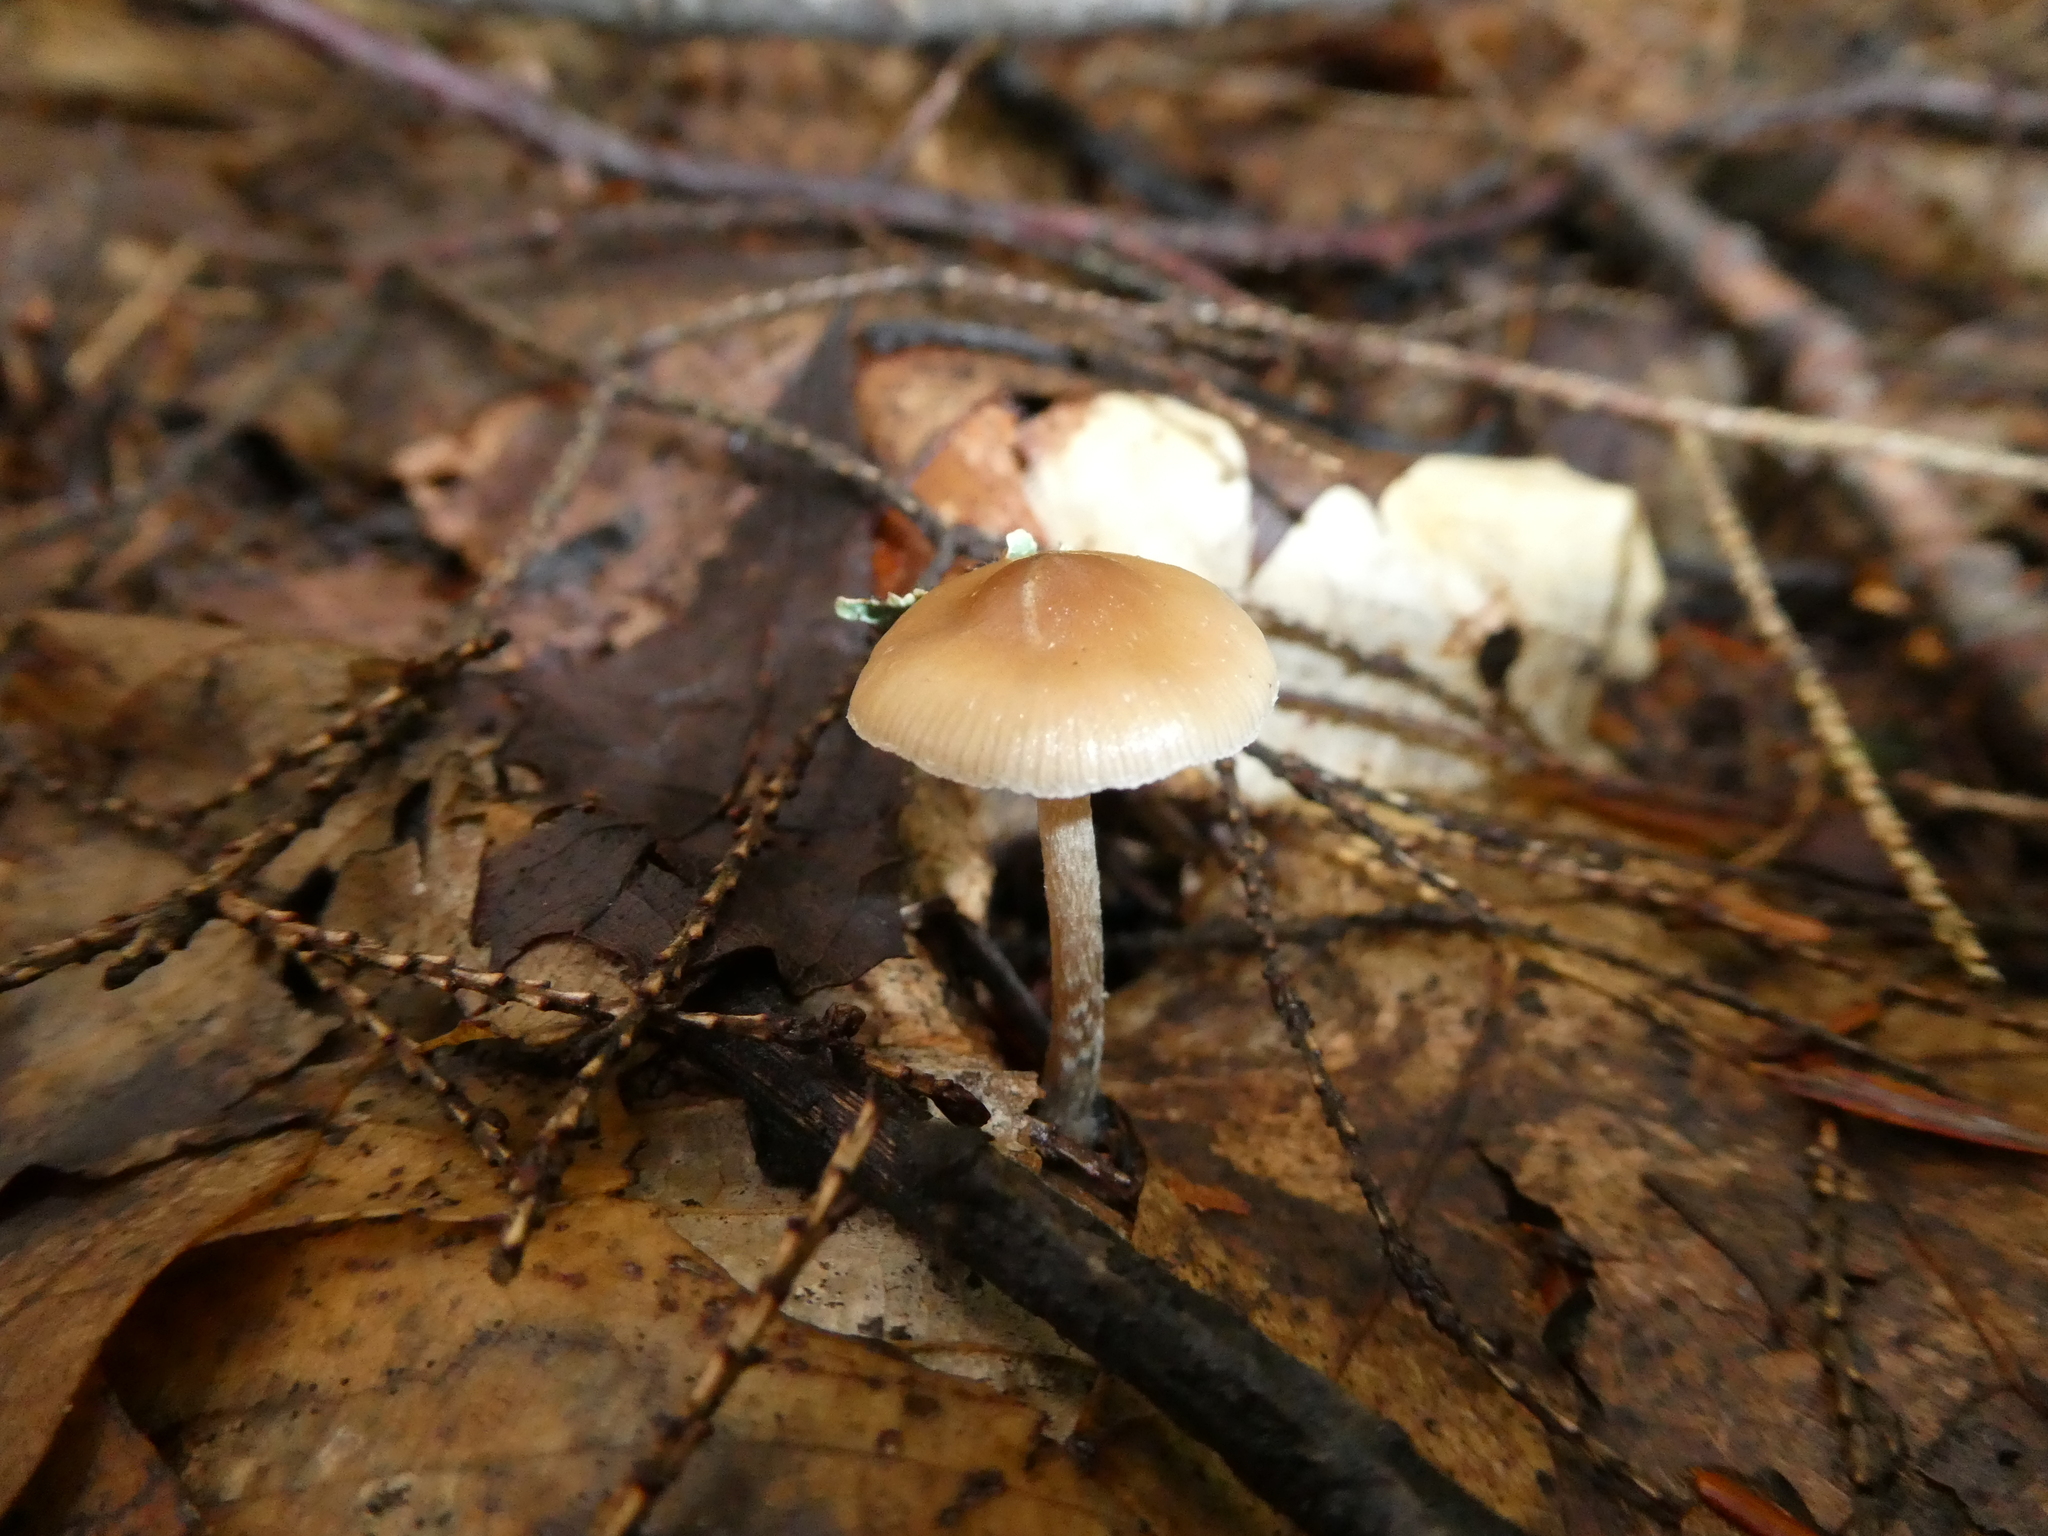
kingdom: Fungi
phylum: Basidiomycota
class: Agaricomycetes
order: Agaricales
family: Hymenogastraceae
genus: Psilocybe
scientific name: Psilocybe caerulipes
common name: Blue-foot
